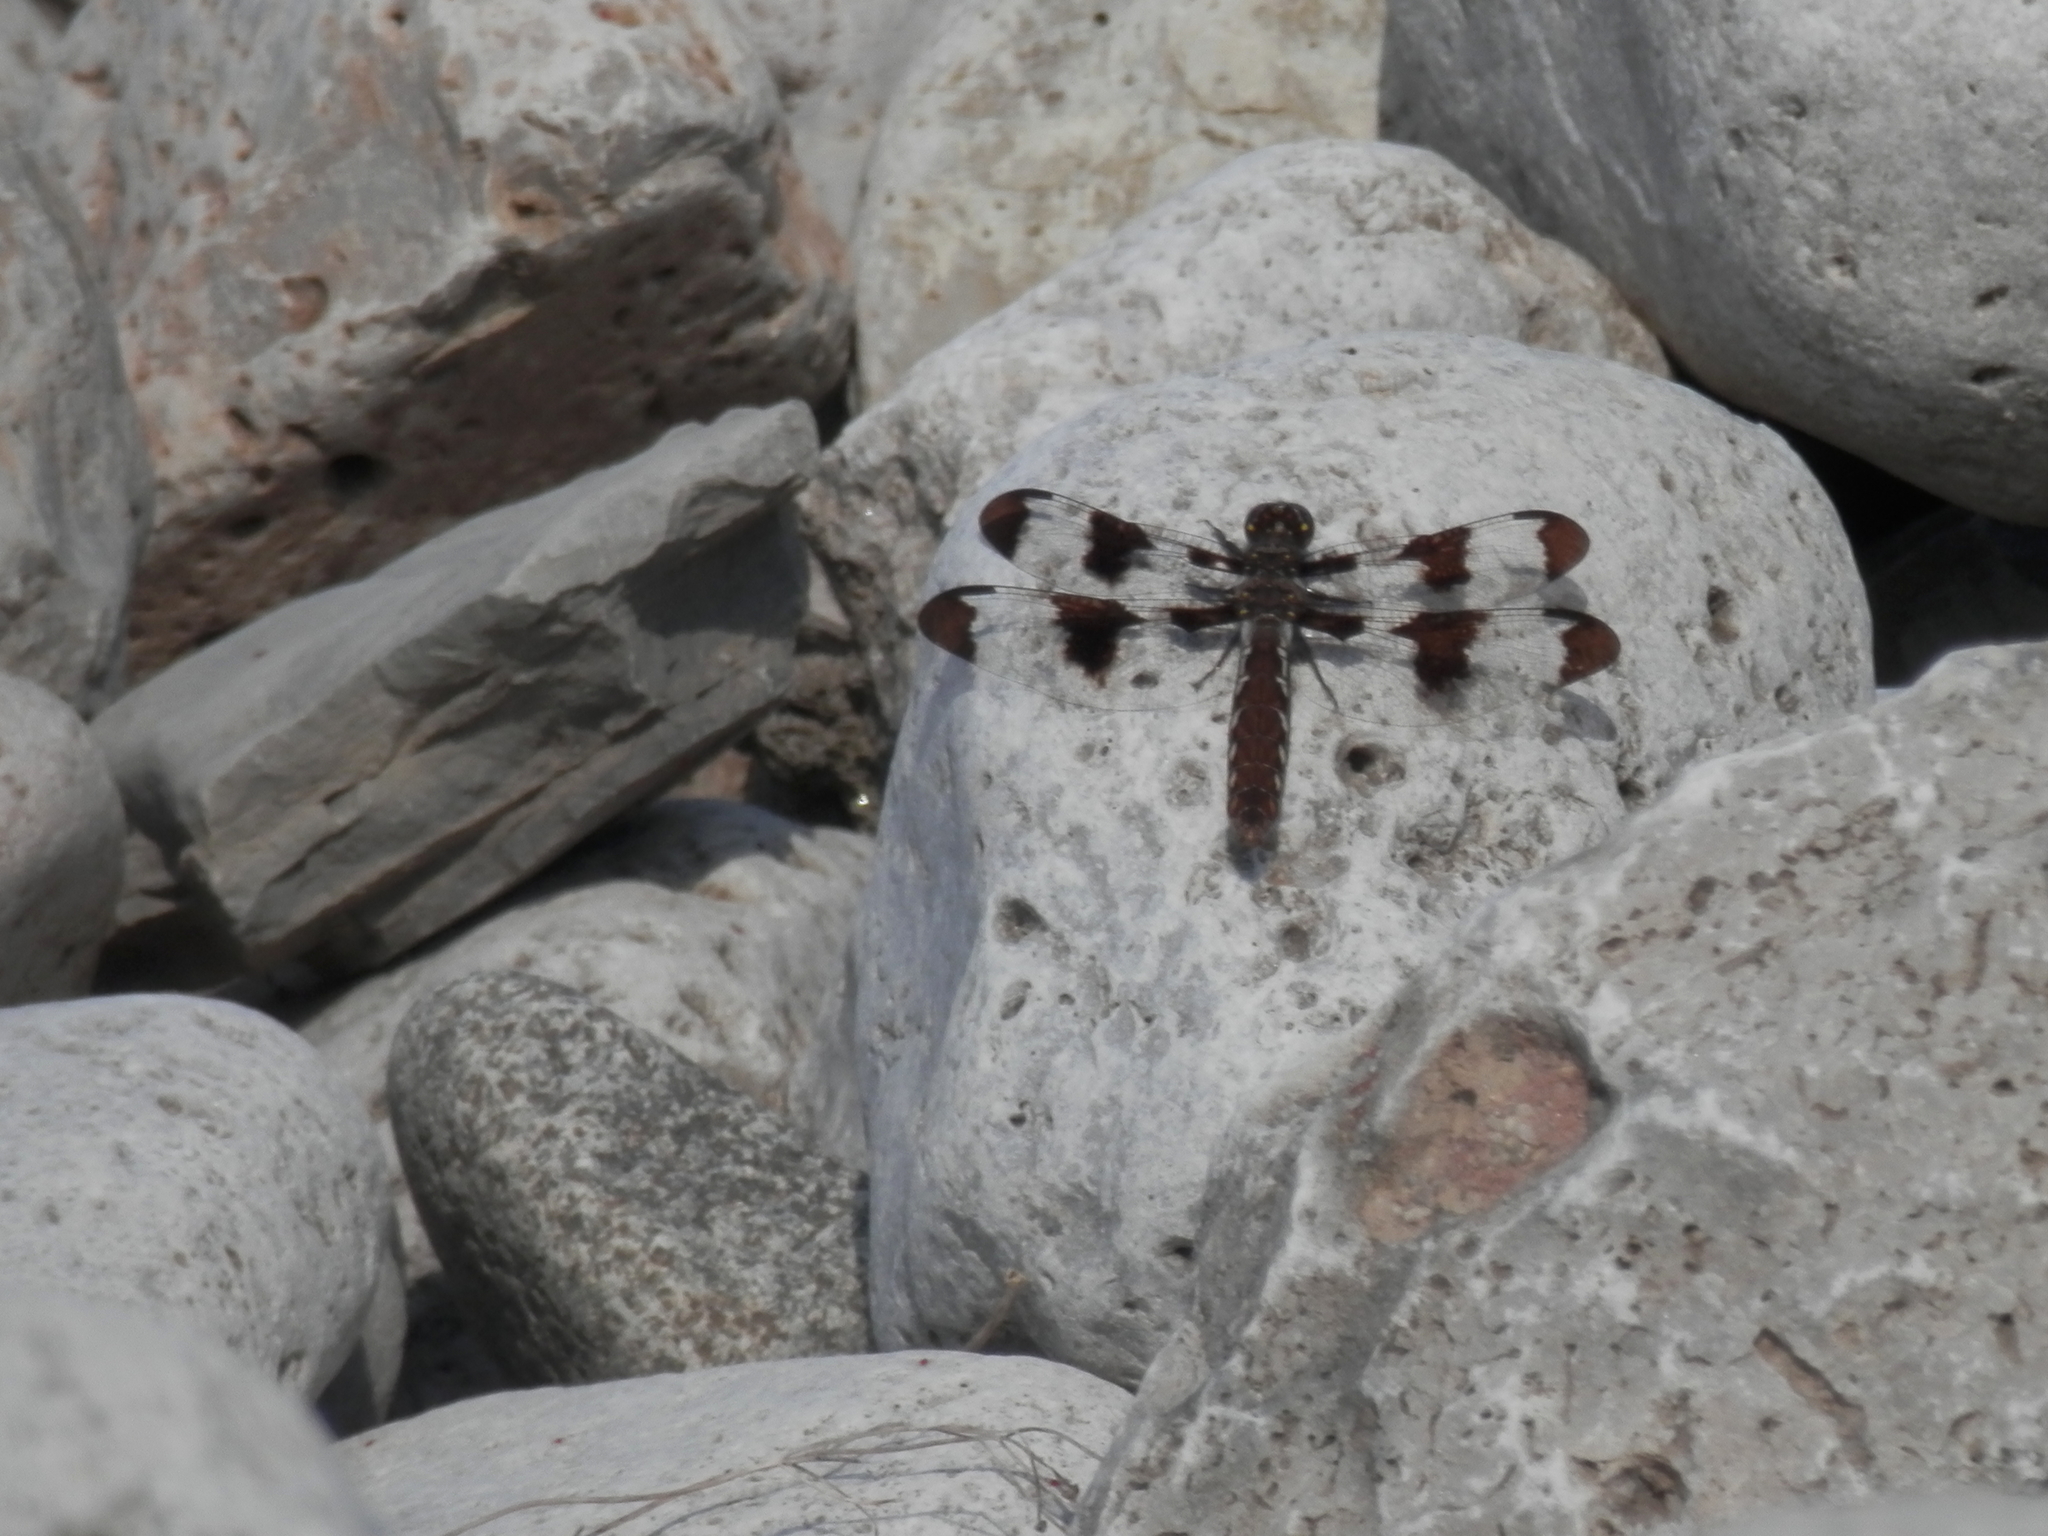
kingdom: Animalia
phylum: Arthropoda
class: Insecta
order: Odonata
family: Libellulidae
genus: Plathemis
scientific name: Plathemis lydia
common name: Common whitetail
